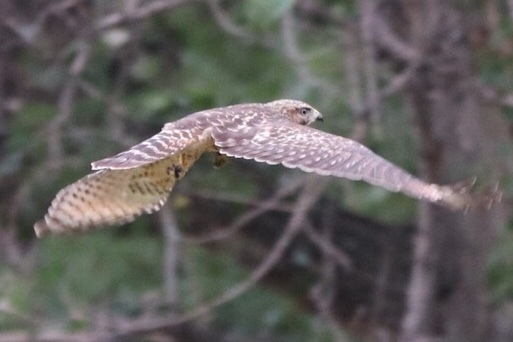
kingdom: Animalia
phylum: Chordata
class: Aves
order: Accipitriformes
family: Accipitridae
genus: Buteo
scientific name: Buteo lineatus
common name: Red-shouldered hawk
